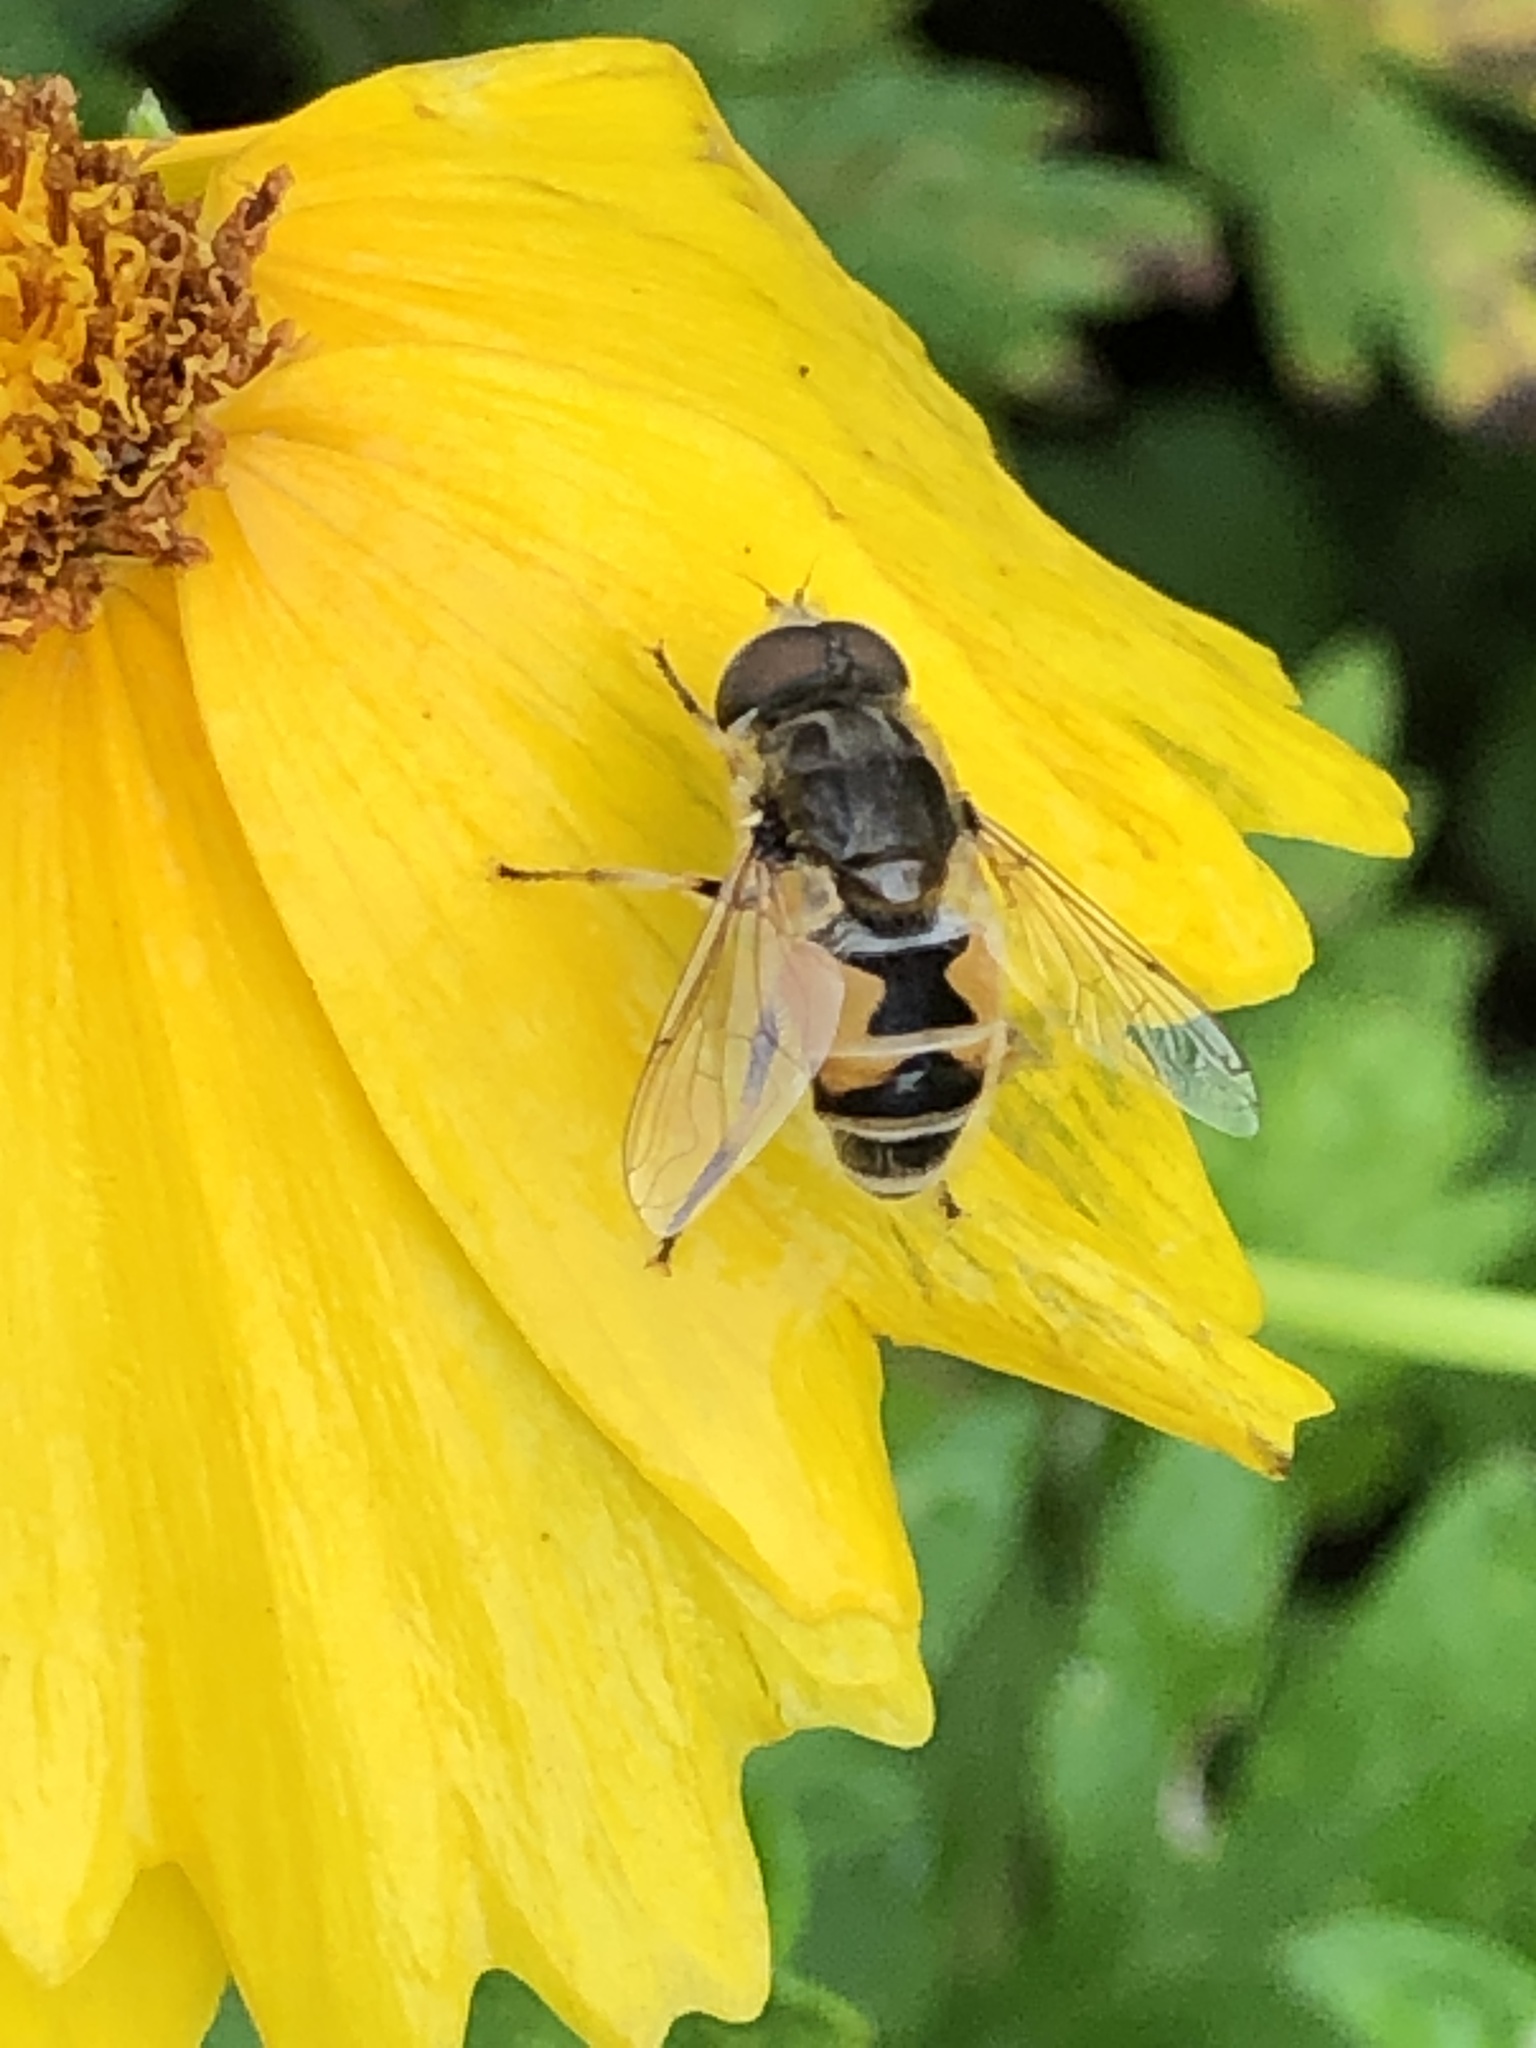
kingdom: Animalia
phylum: Arthropoda
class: Insecta
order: Diptera
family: Syrphidae
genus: Eristalis
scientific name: Eristalis arbustorum
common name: Hover fly
